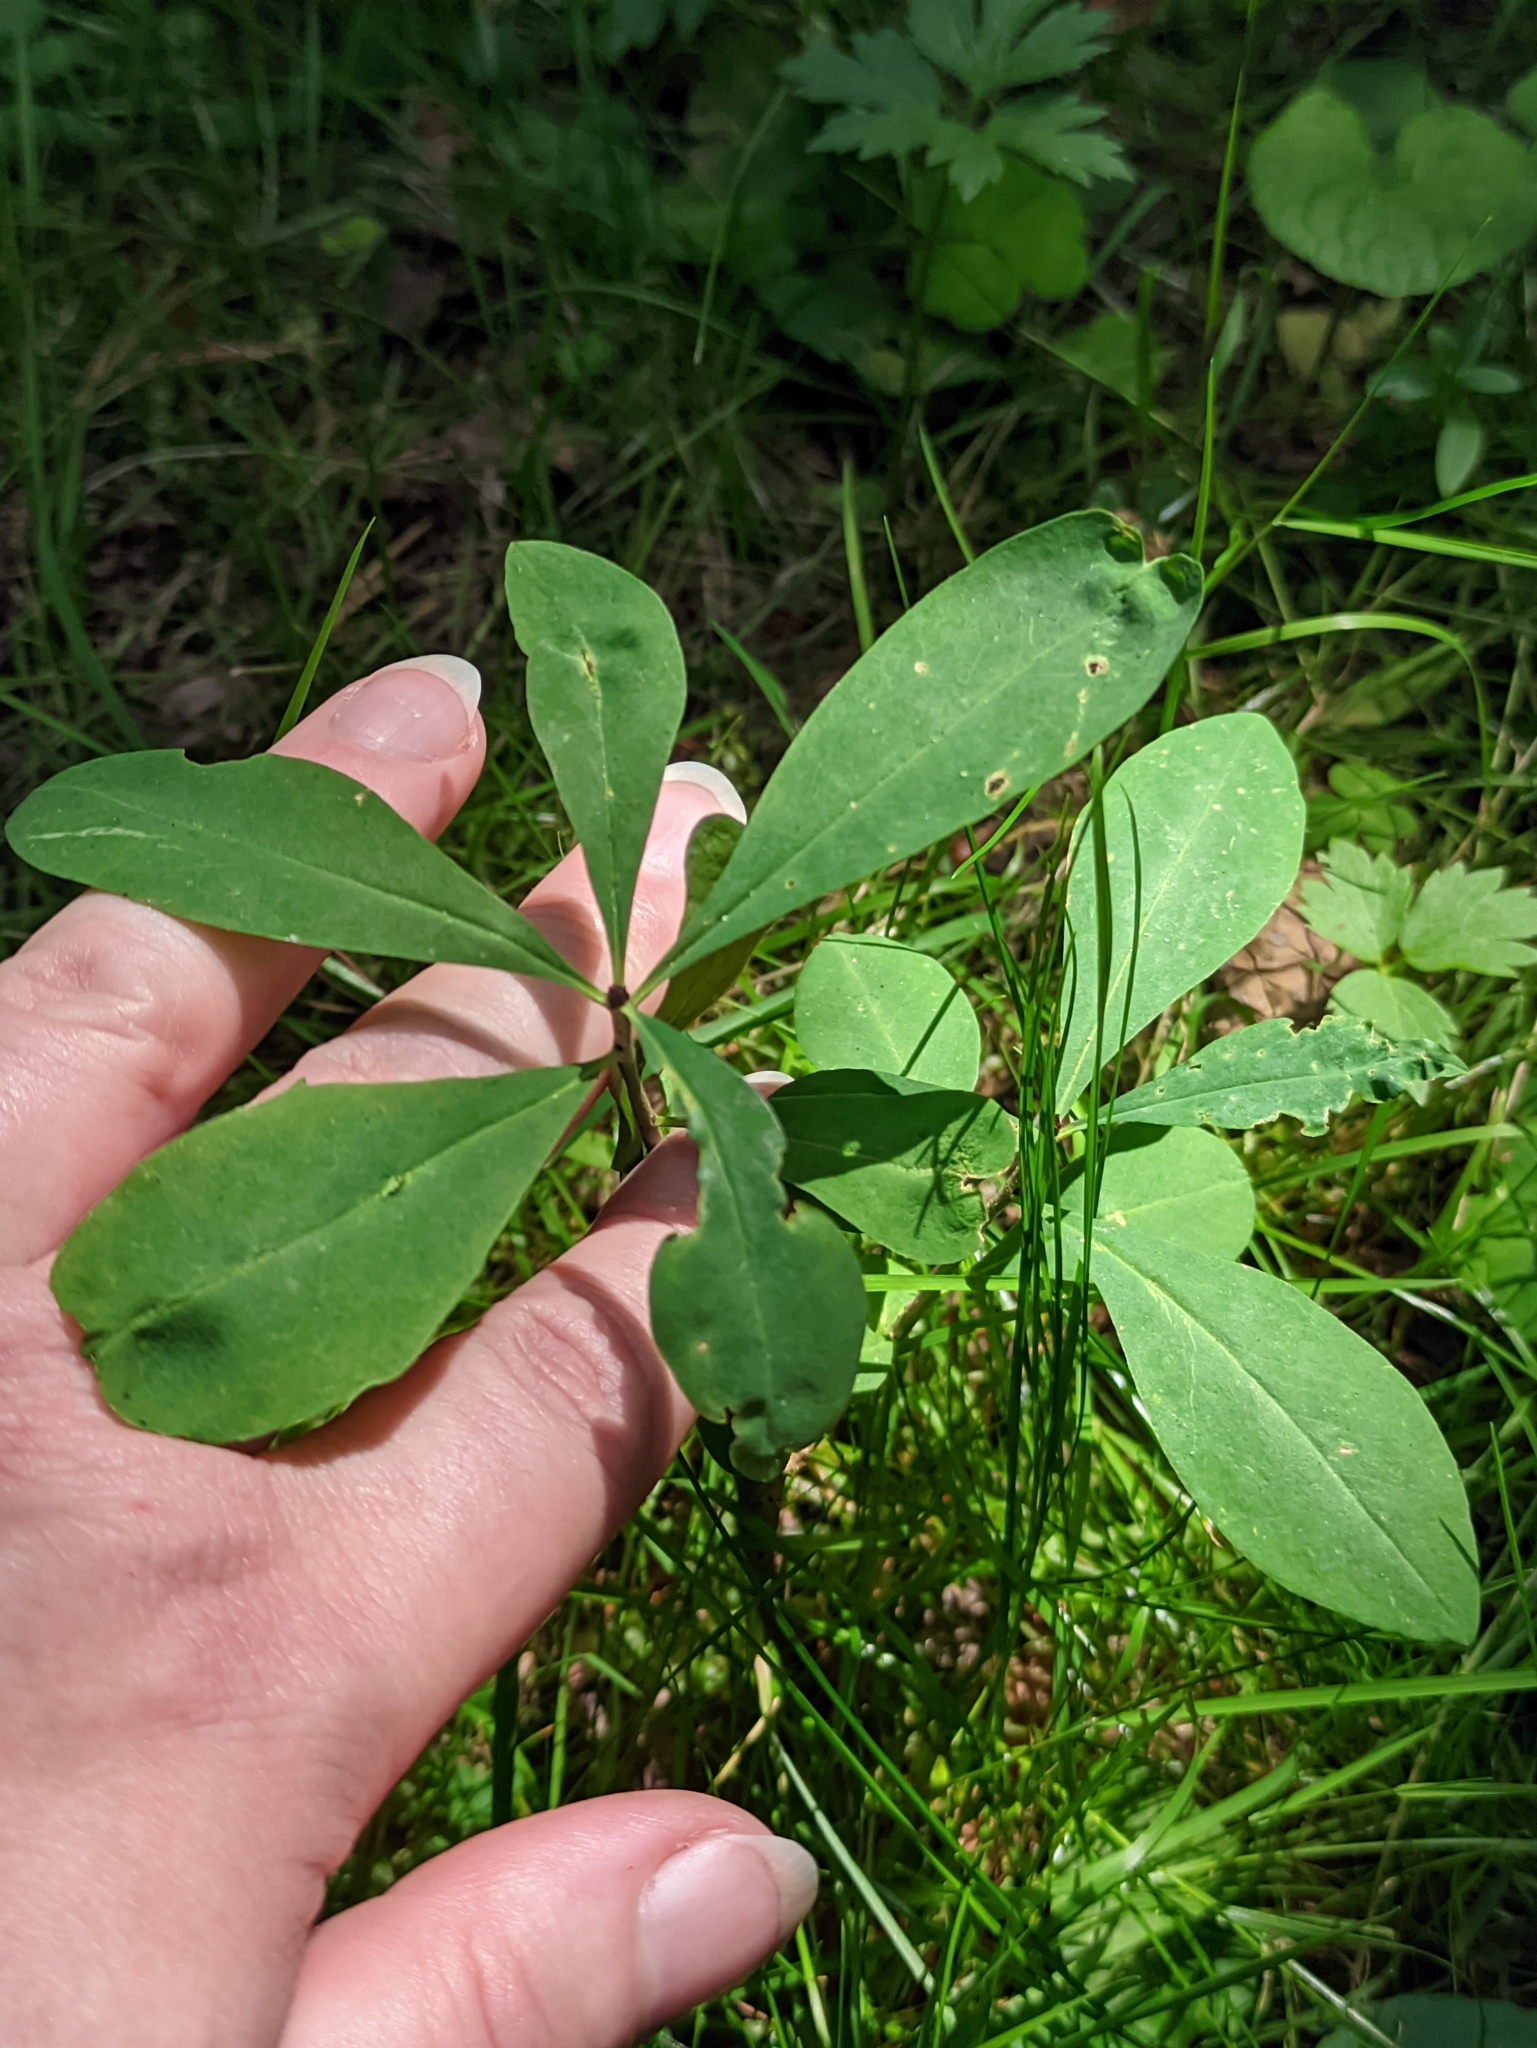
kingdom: Plantae
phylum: Tracheophyta
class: Magnoliopsida
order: Malvales
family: Thymelaeaceae
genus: Daphne
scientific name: Daphne mezereum
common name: Mezereon
